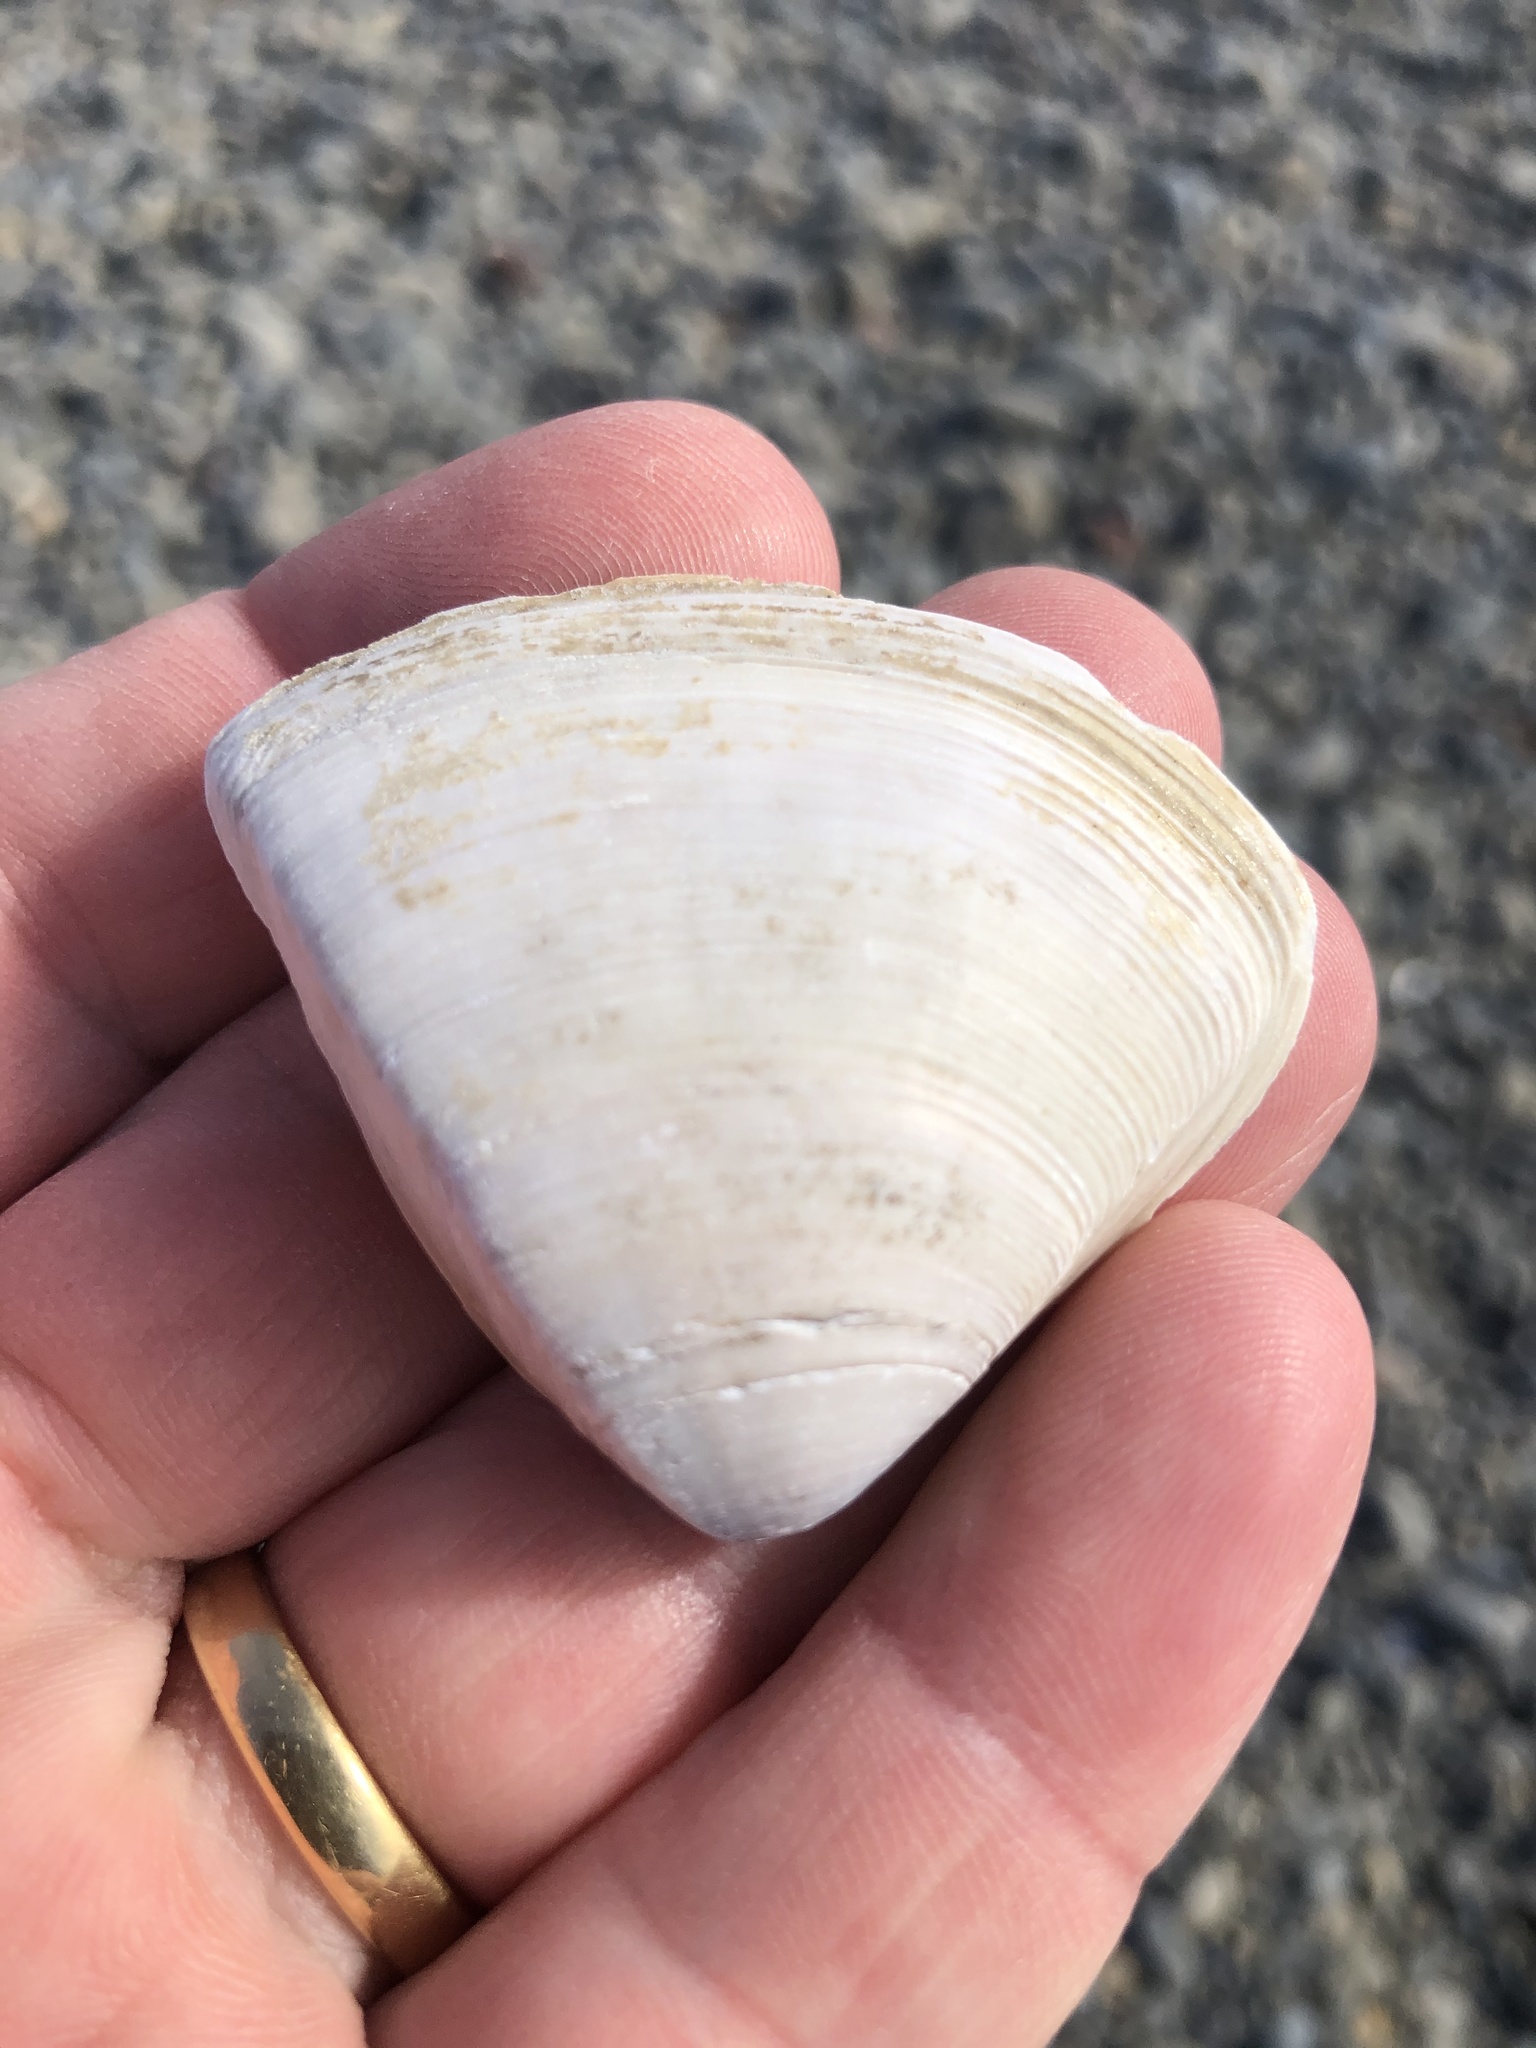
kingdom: Animalia
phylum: Mollusca
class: Bivalvia
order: Venerida
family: Mactridae
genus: Crassula
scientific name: Crassula aequilatera
